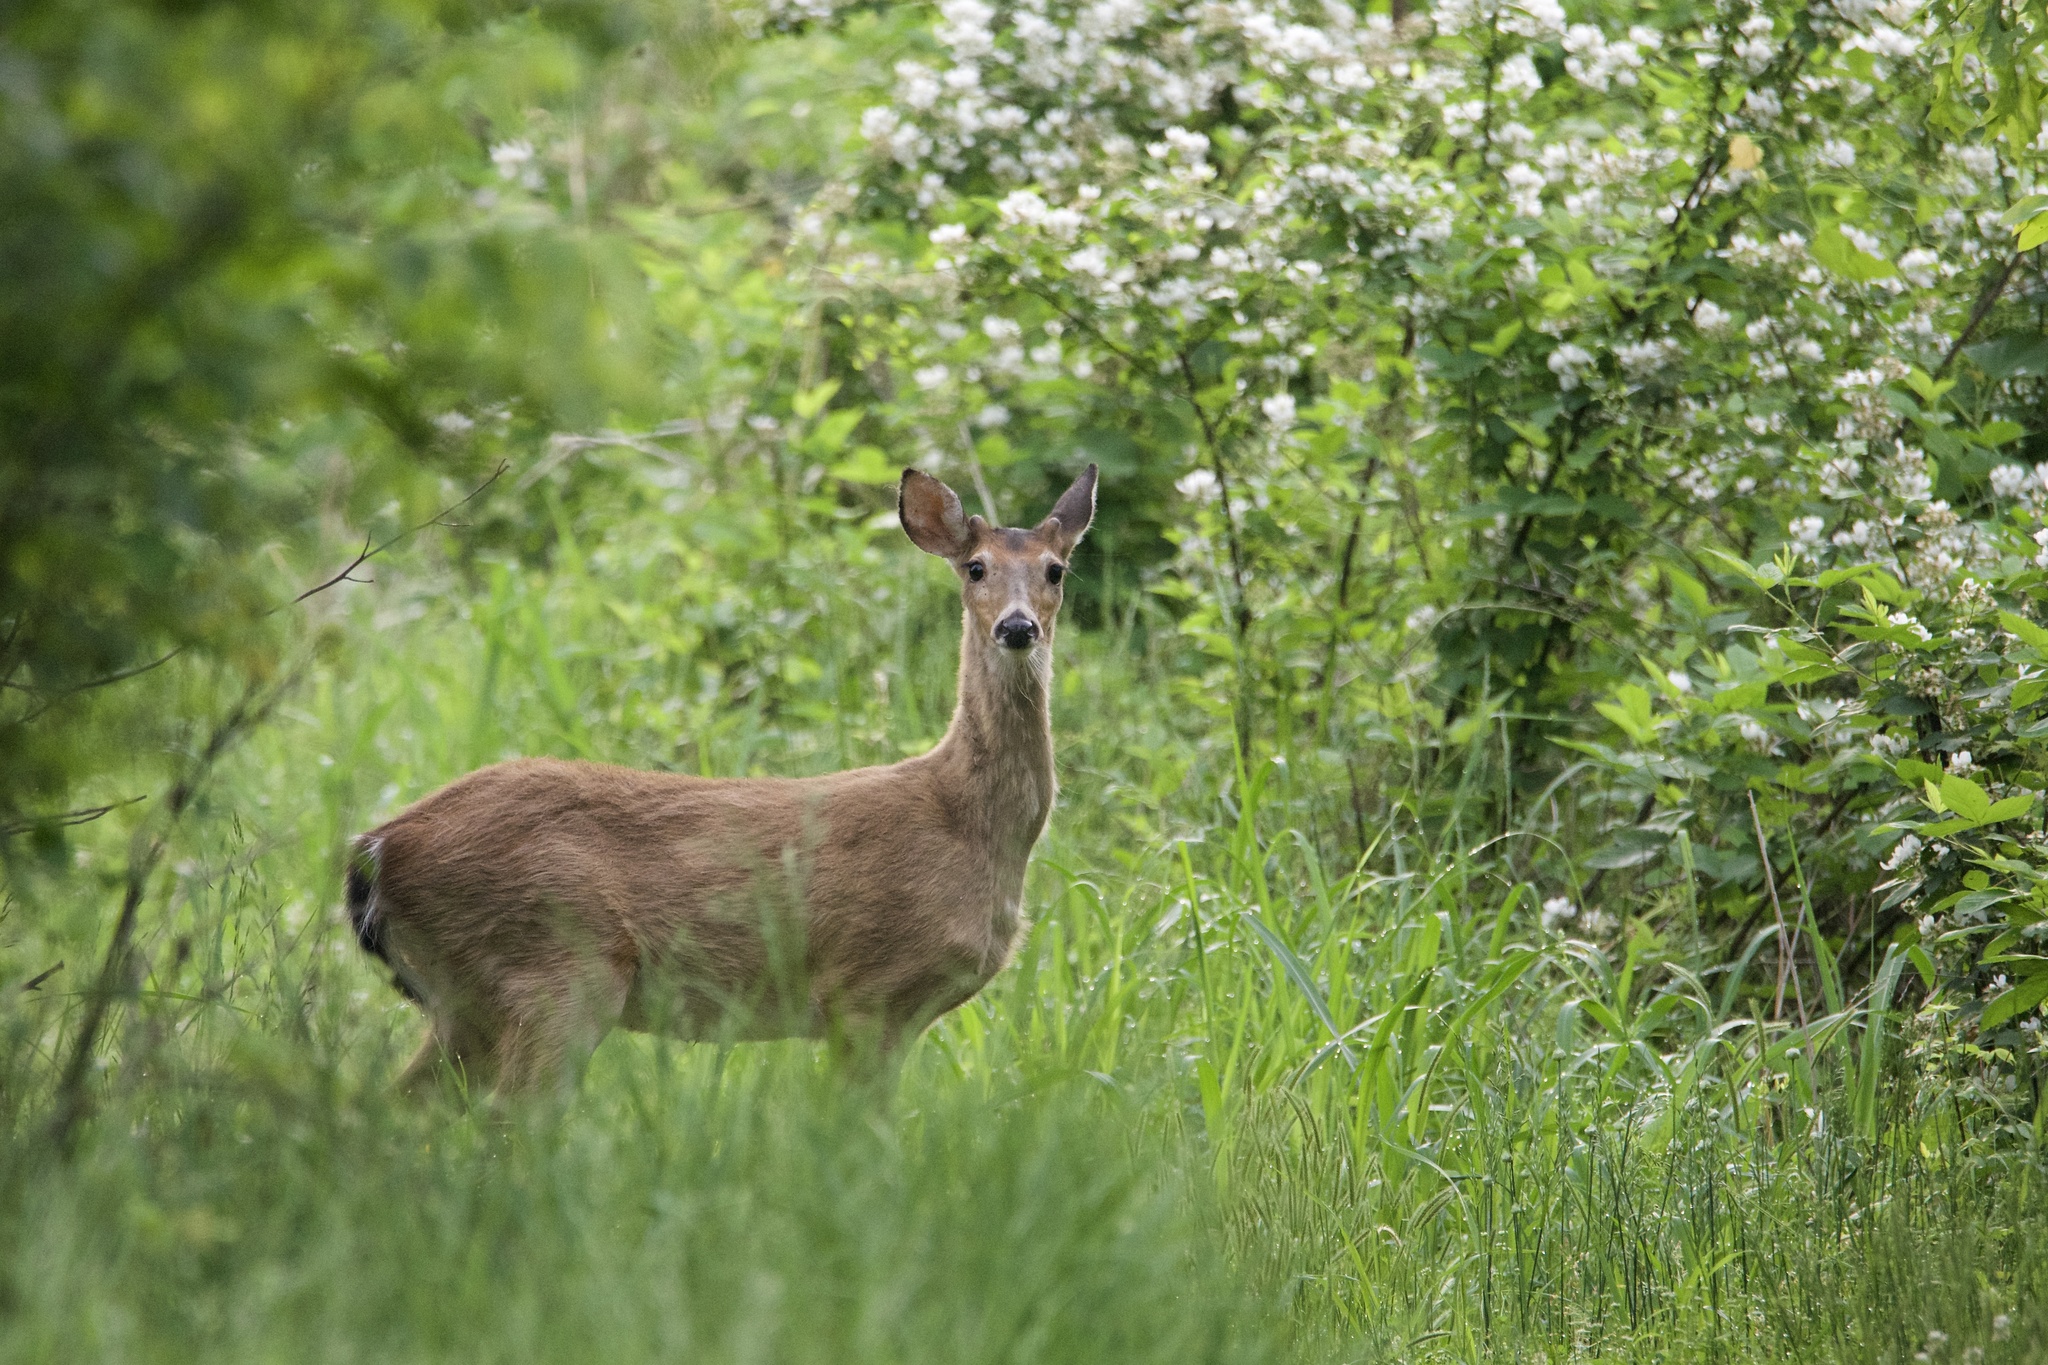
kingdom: Animalia
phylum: Chordata
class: Mammalia
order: Artiodactyla
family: Cervidae
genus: Odocoileus
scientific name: Odocoileus virginianus
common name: White-tailed deer
